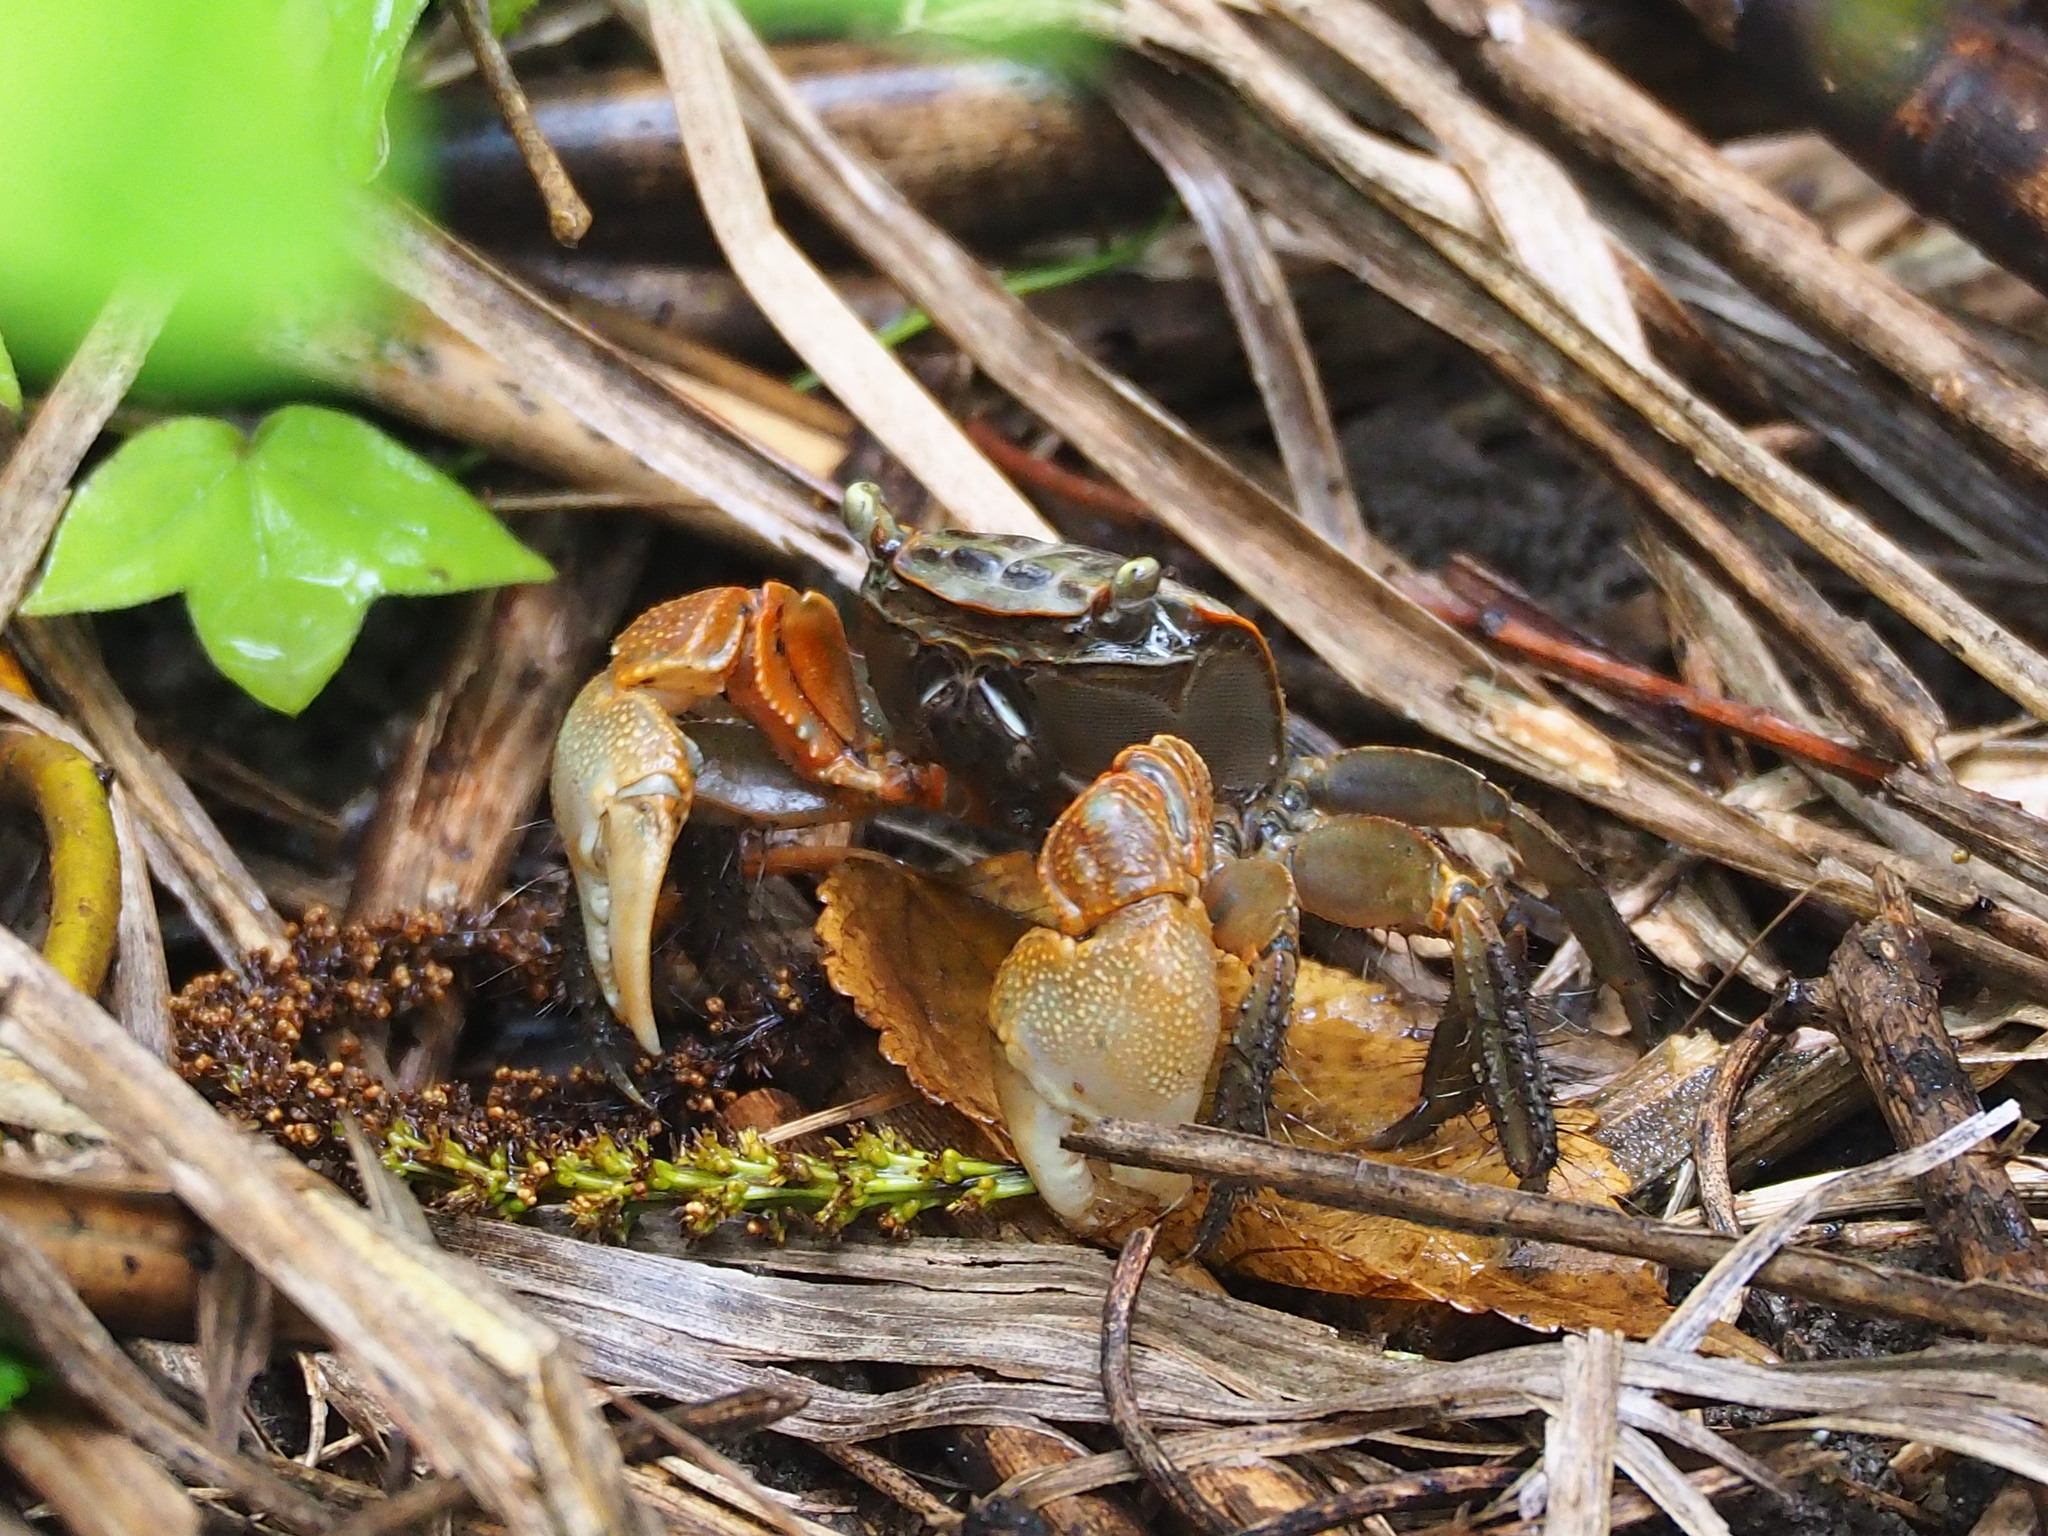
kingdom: Animalia
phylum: Arthropoda
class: Malacostraca
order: Decapoda
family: Sesarmidae
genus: Orisarma
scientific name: Orisarma dehaani
